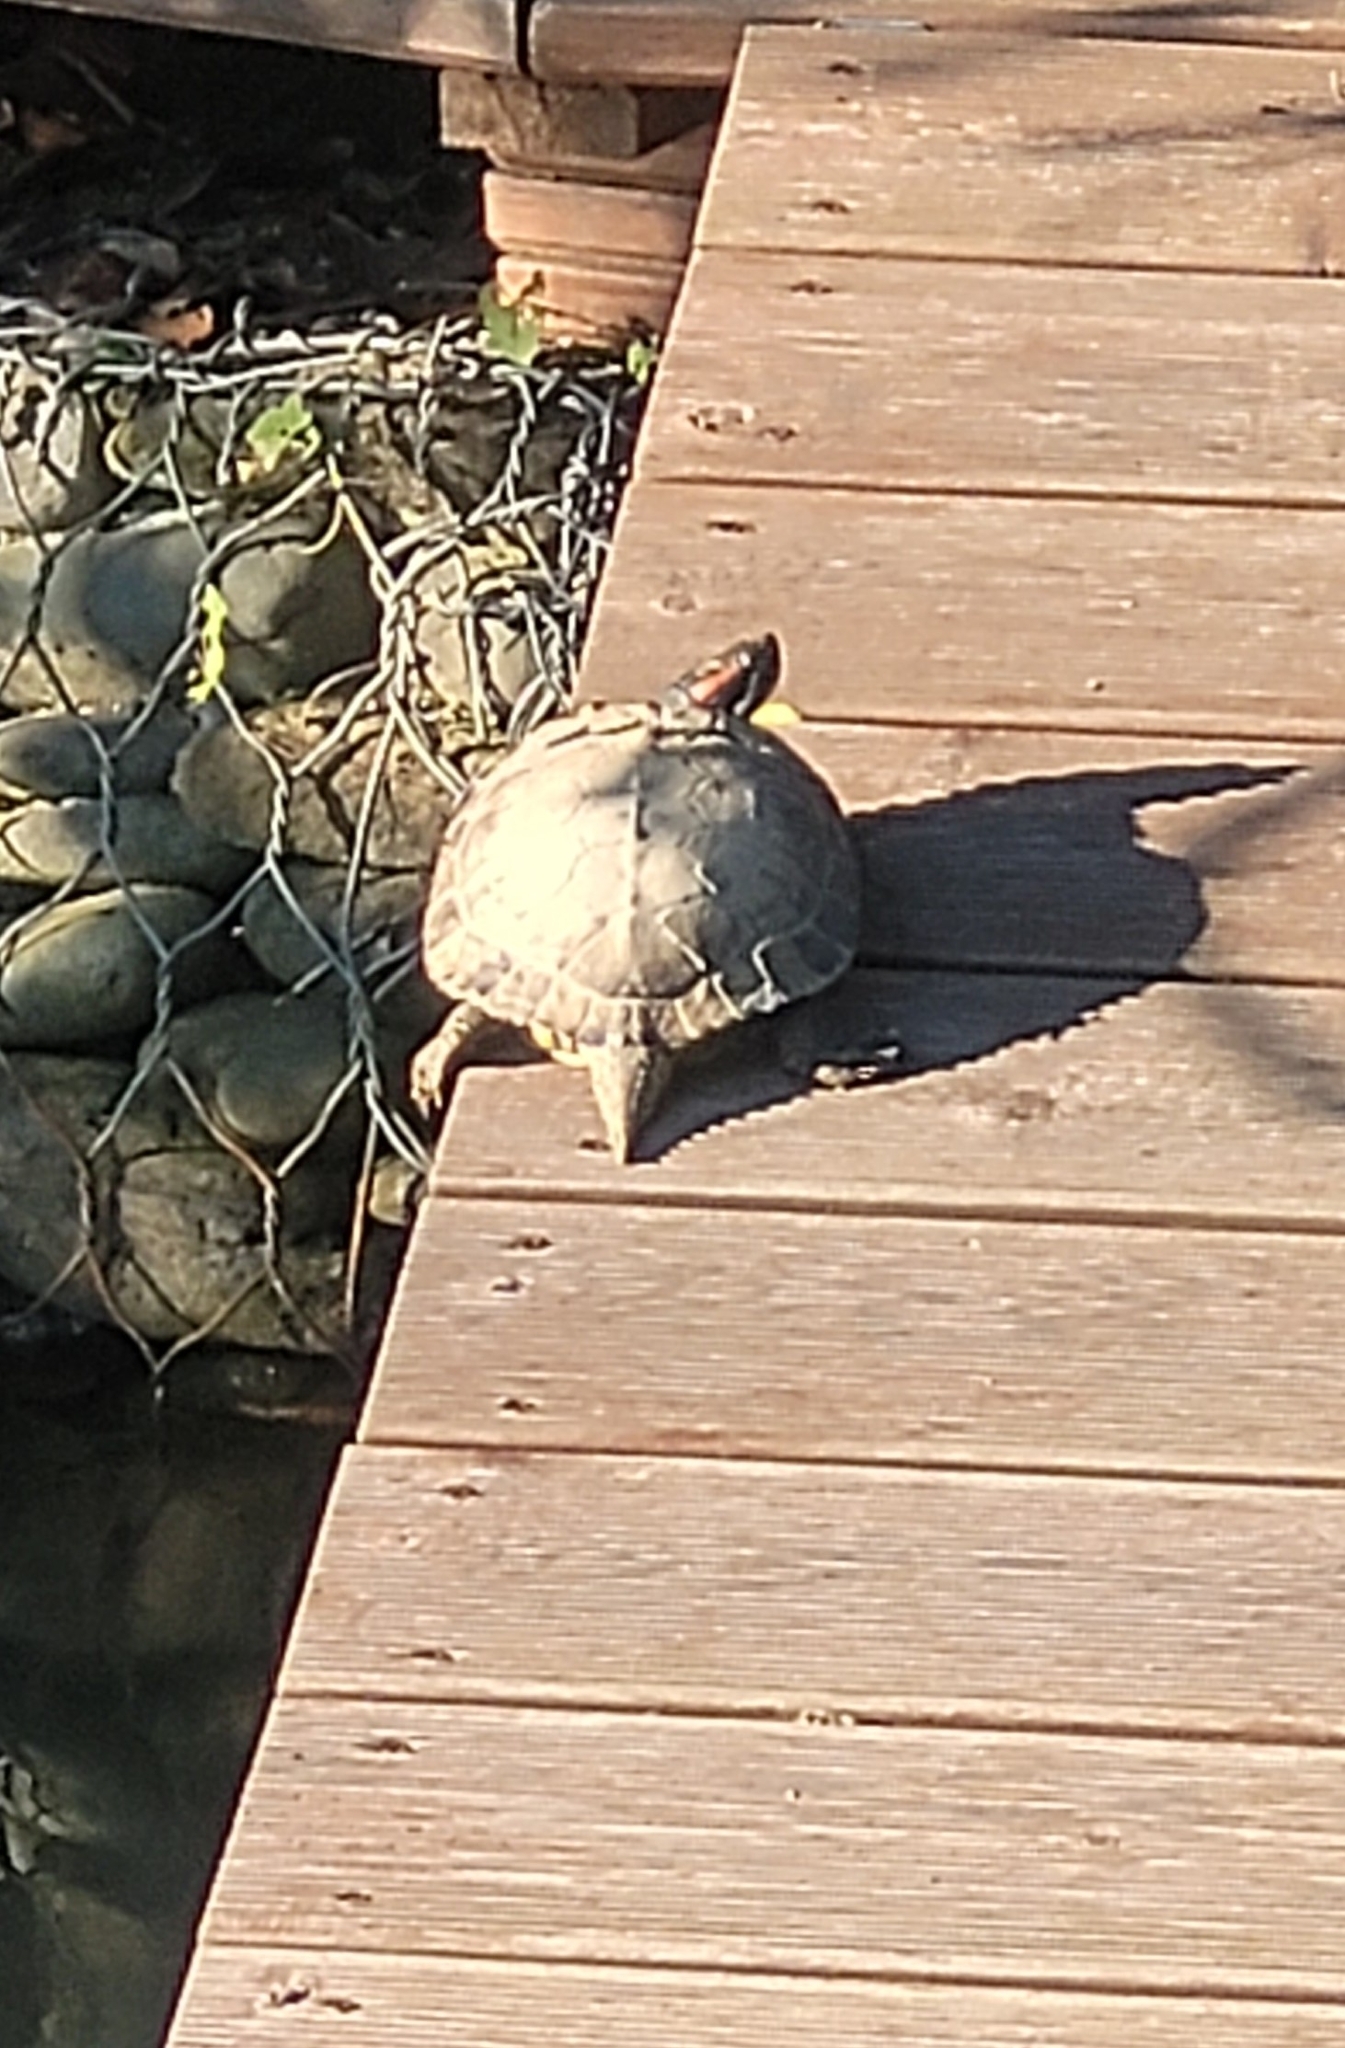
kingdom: Animalia
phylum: Chordata
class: Testudines
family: Emydidae
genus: Trachemys
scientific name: Trachemys scripta
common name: Slider
